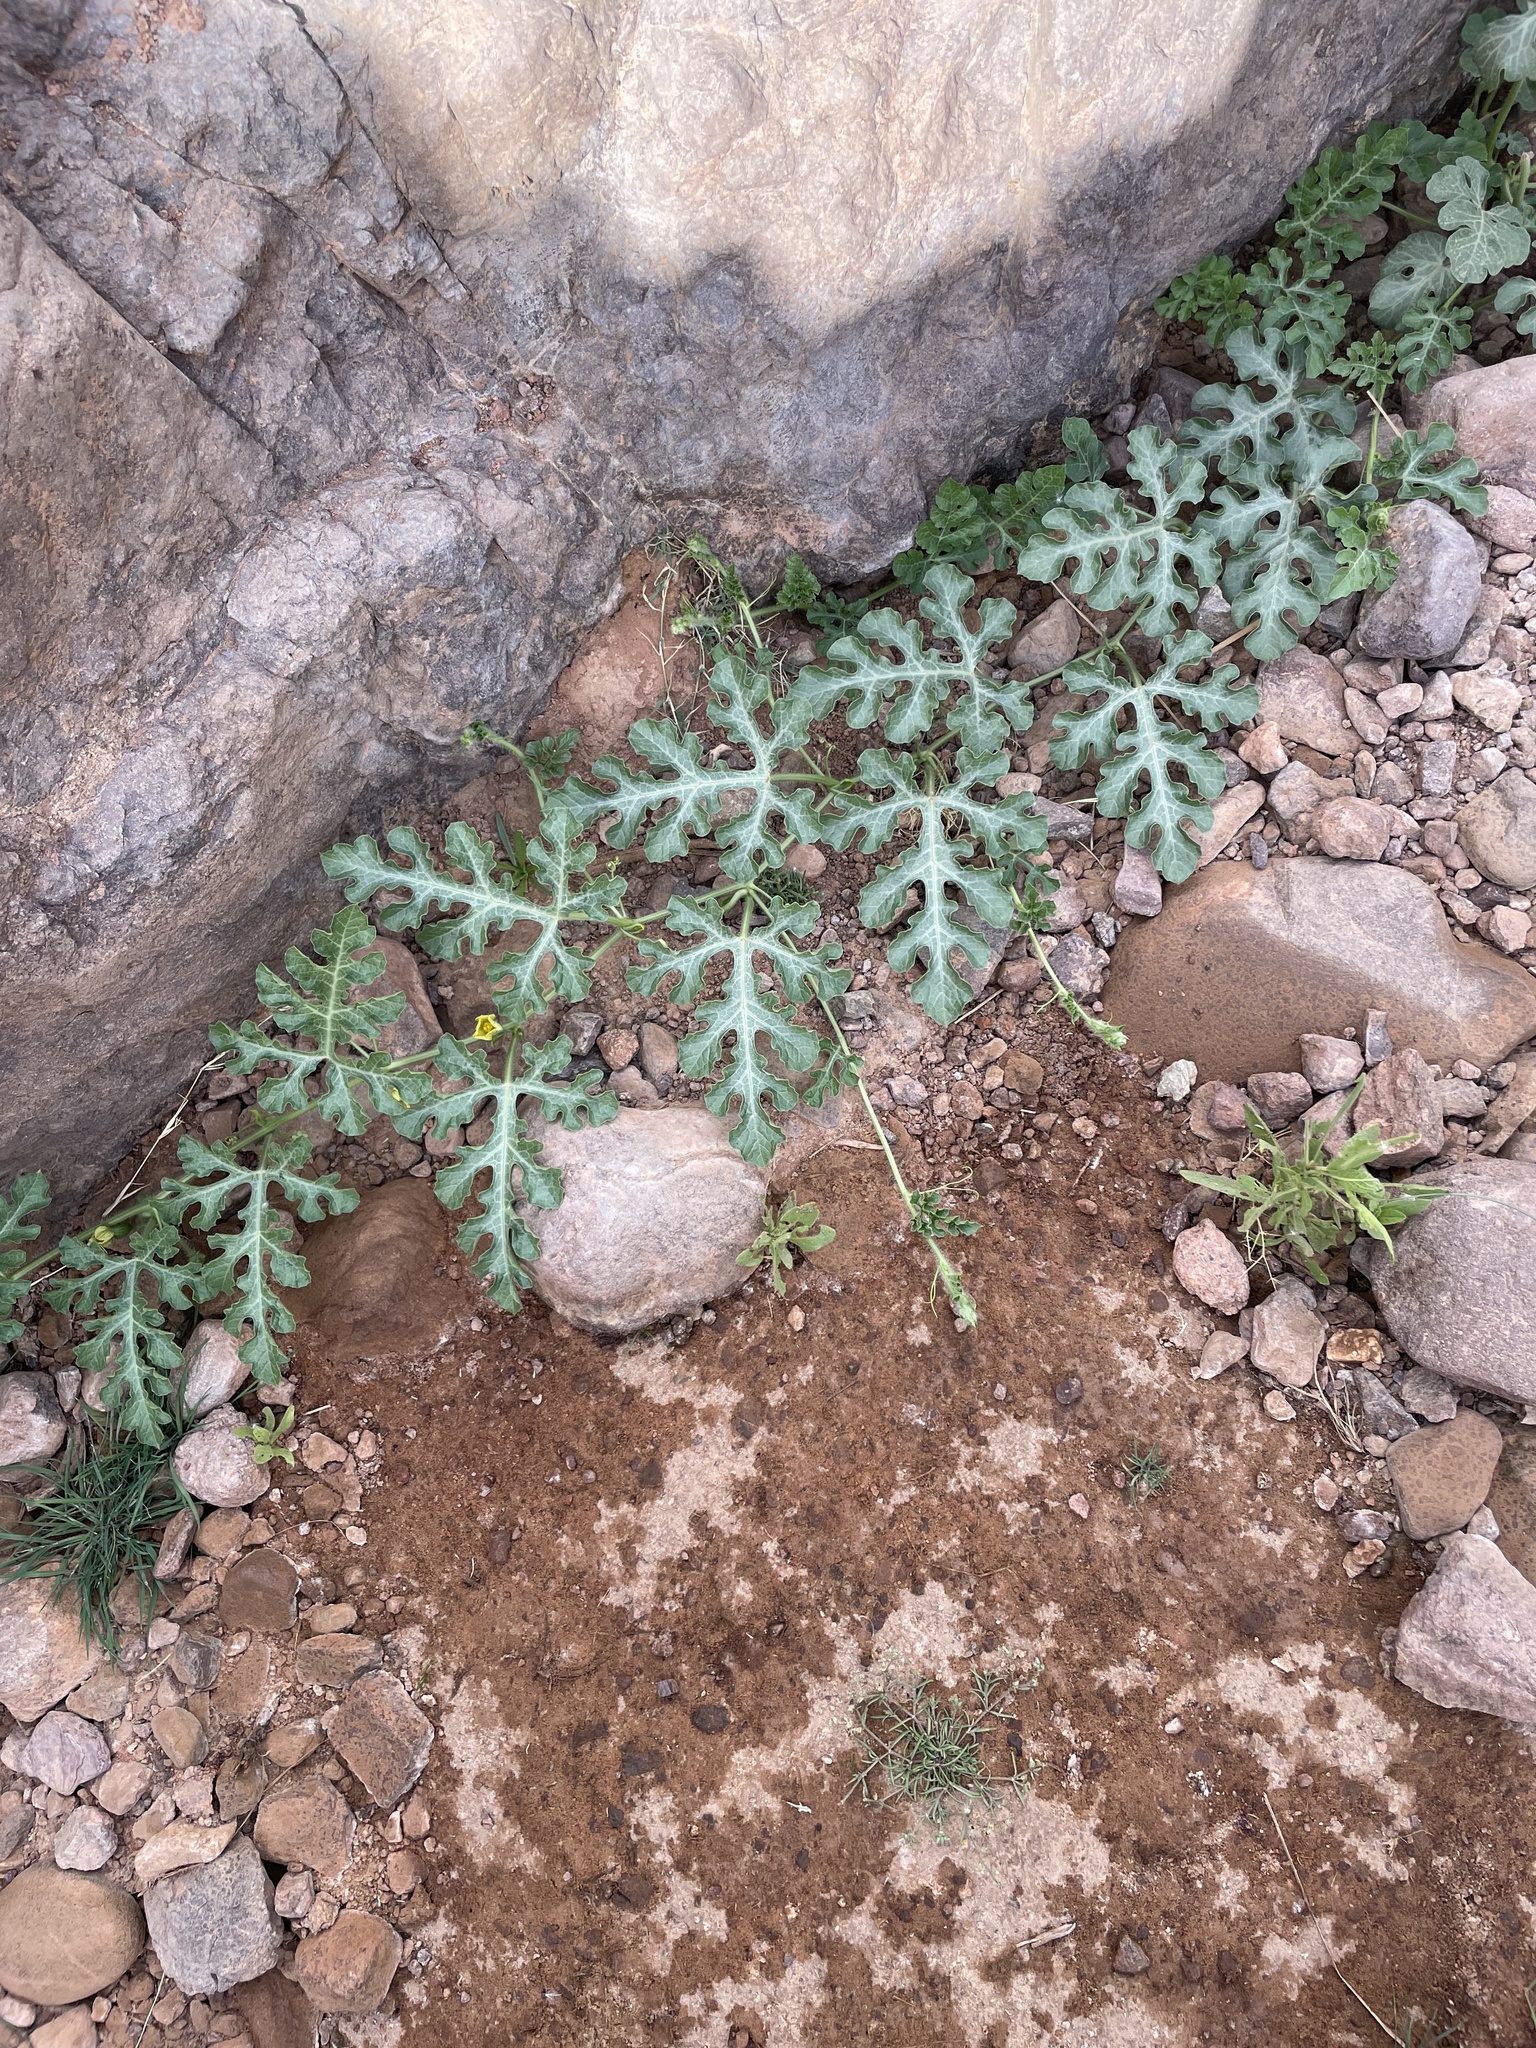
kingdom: Plantae
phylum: Tracheophyta
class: Magnoliopsida
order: Cucurbitales
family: Cucurbitaceae
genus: Citrullus
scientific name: Citrullus lanatus
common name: Watermelon
